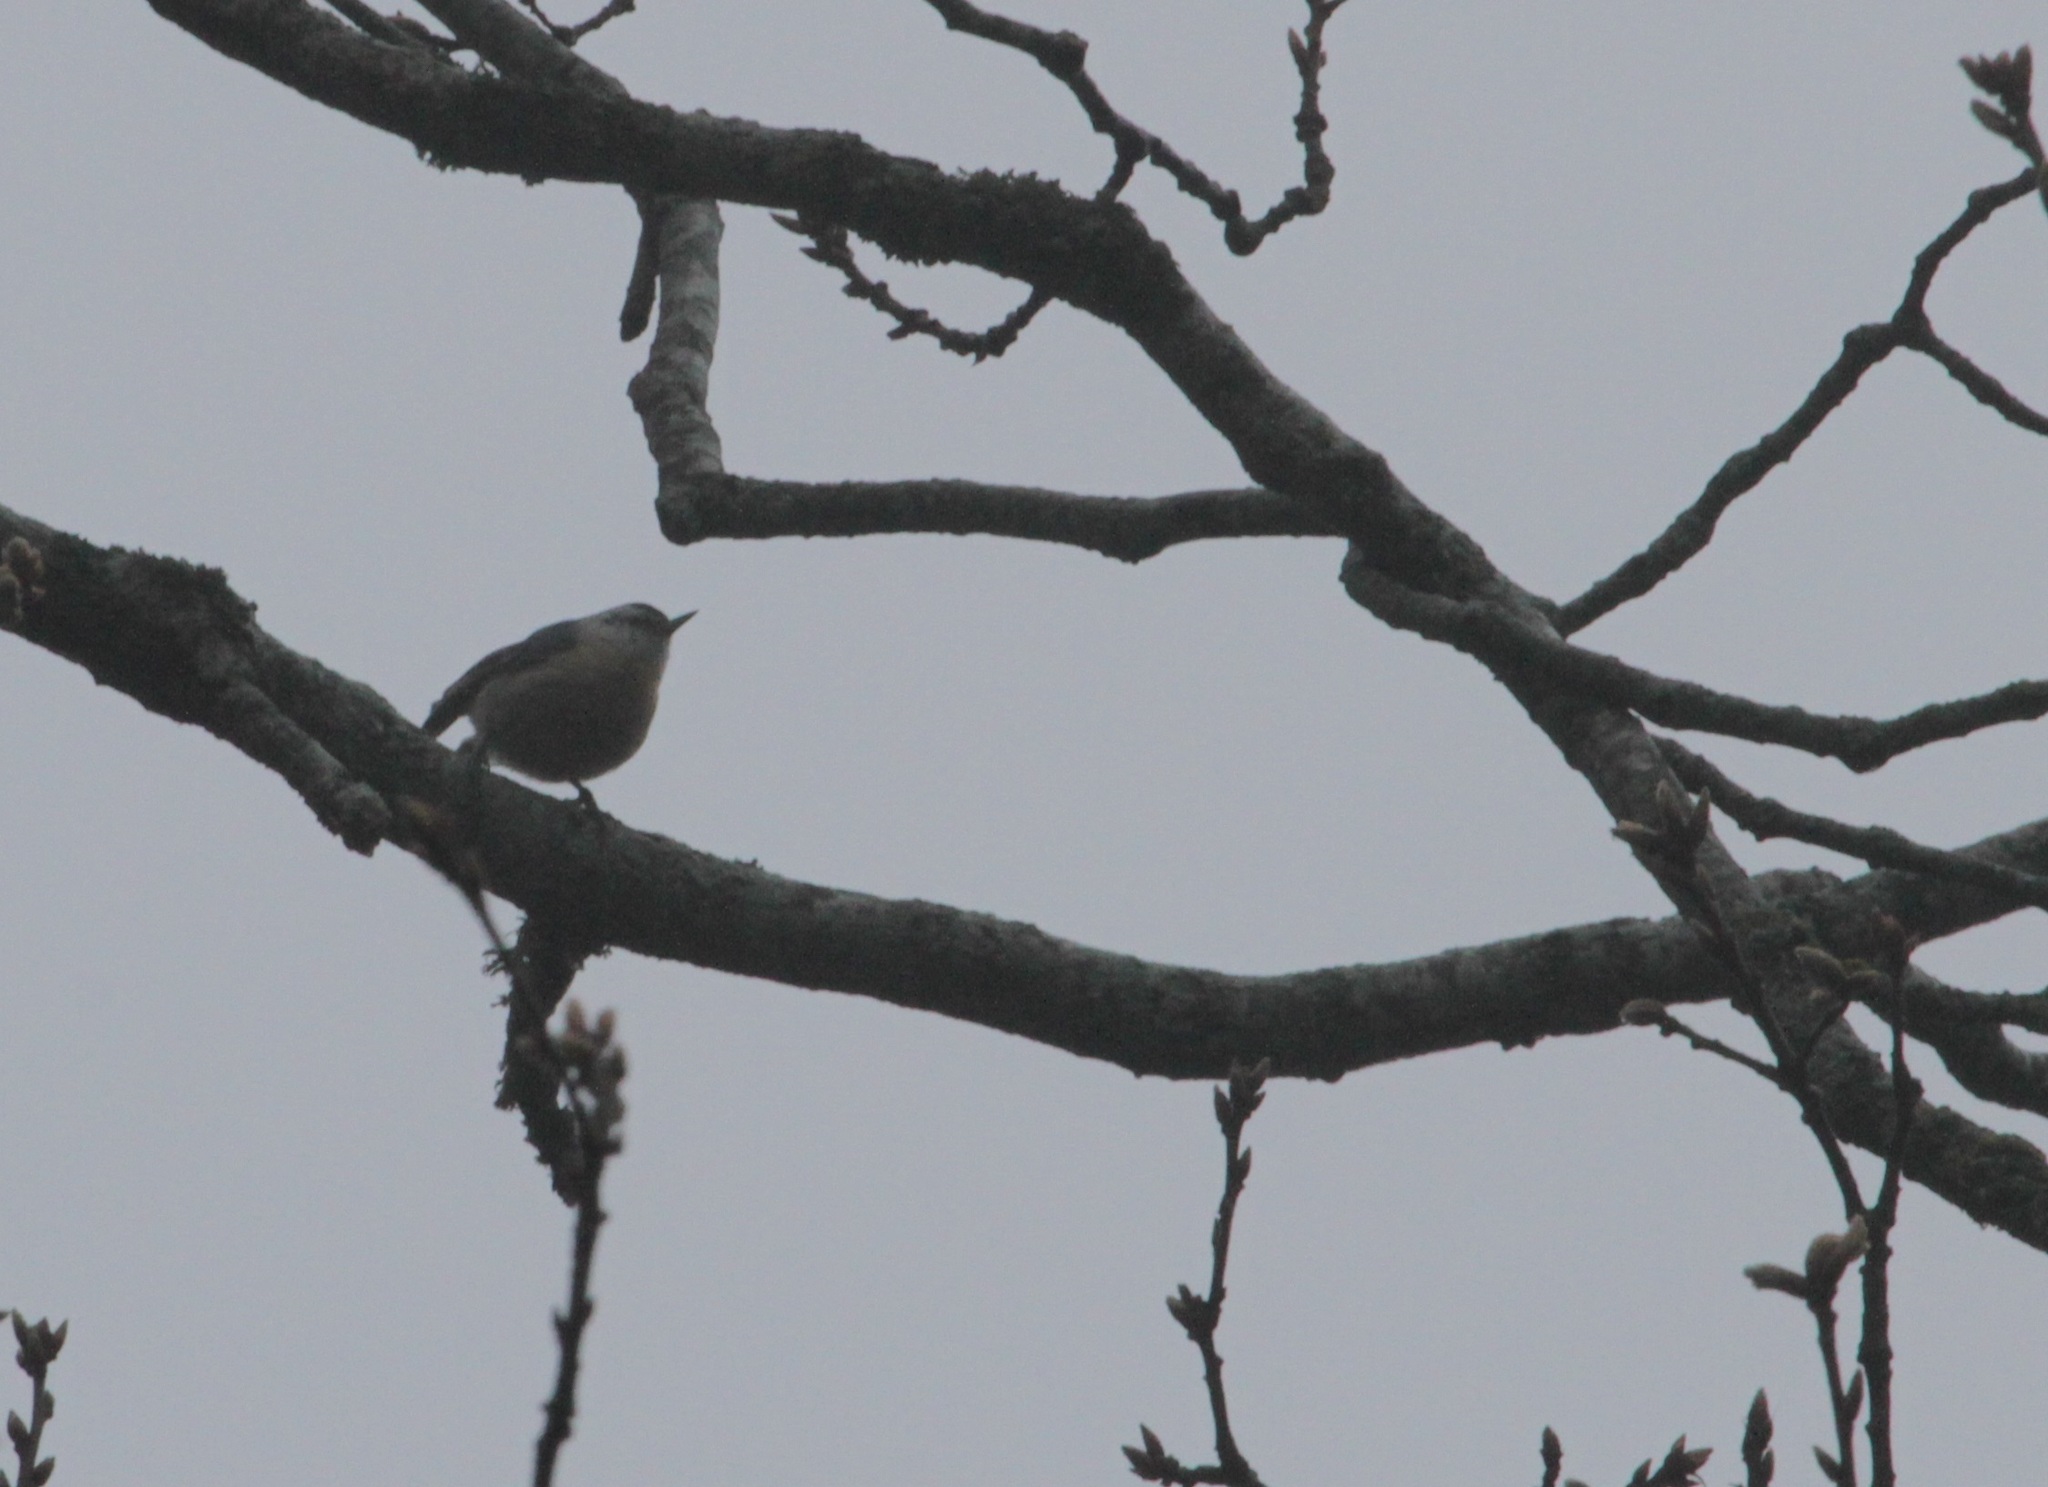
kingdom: Animalia
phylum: Chordata
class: Aves
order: Passeriformes
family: Sittidae
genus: Sitta
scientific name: Sitta ledanti
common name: Algerian nuthatch
